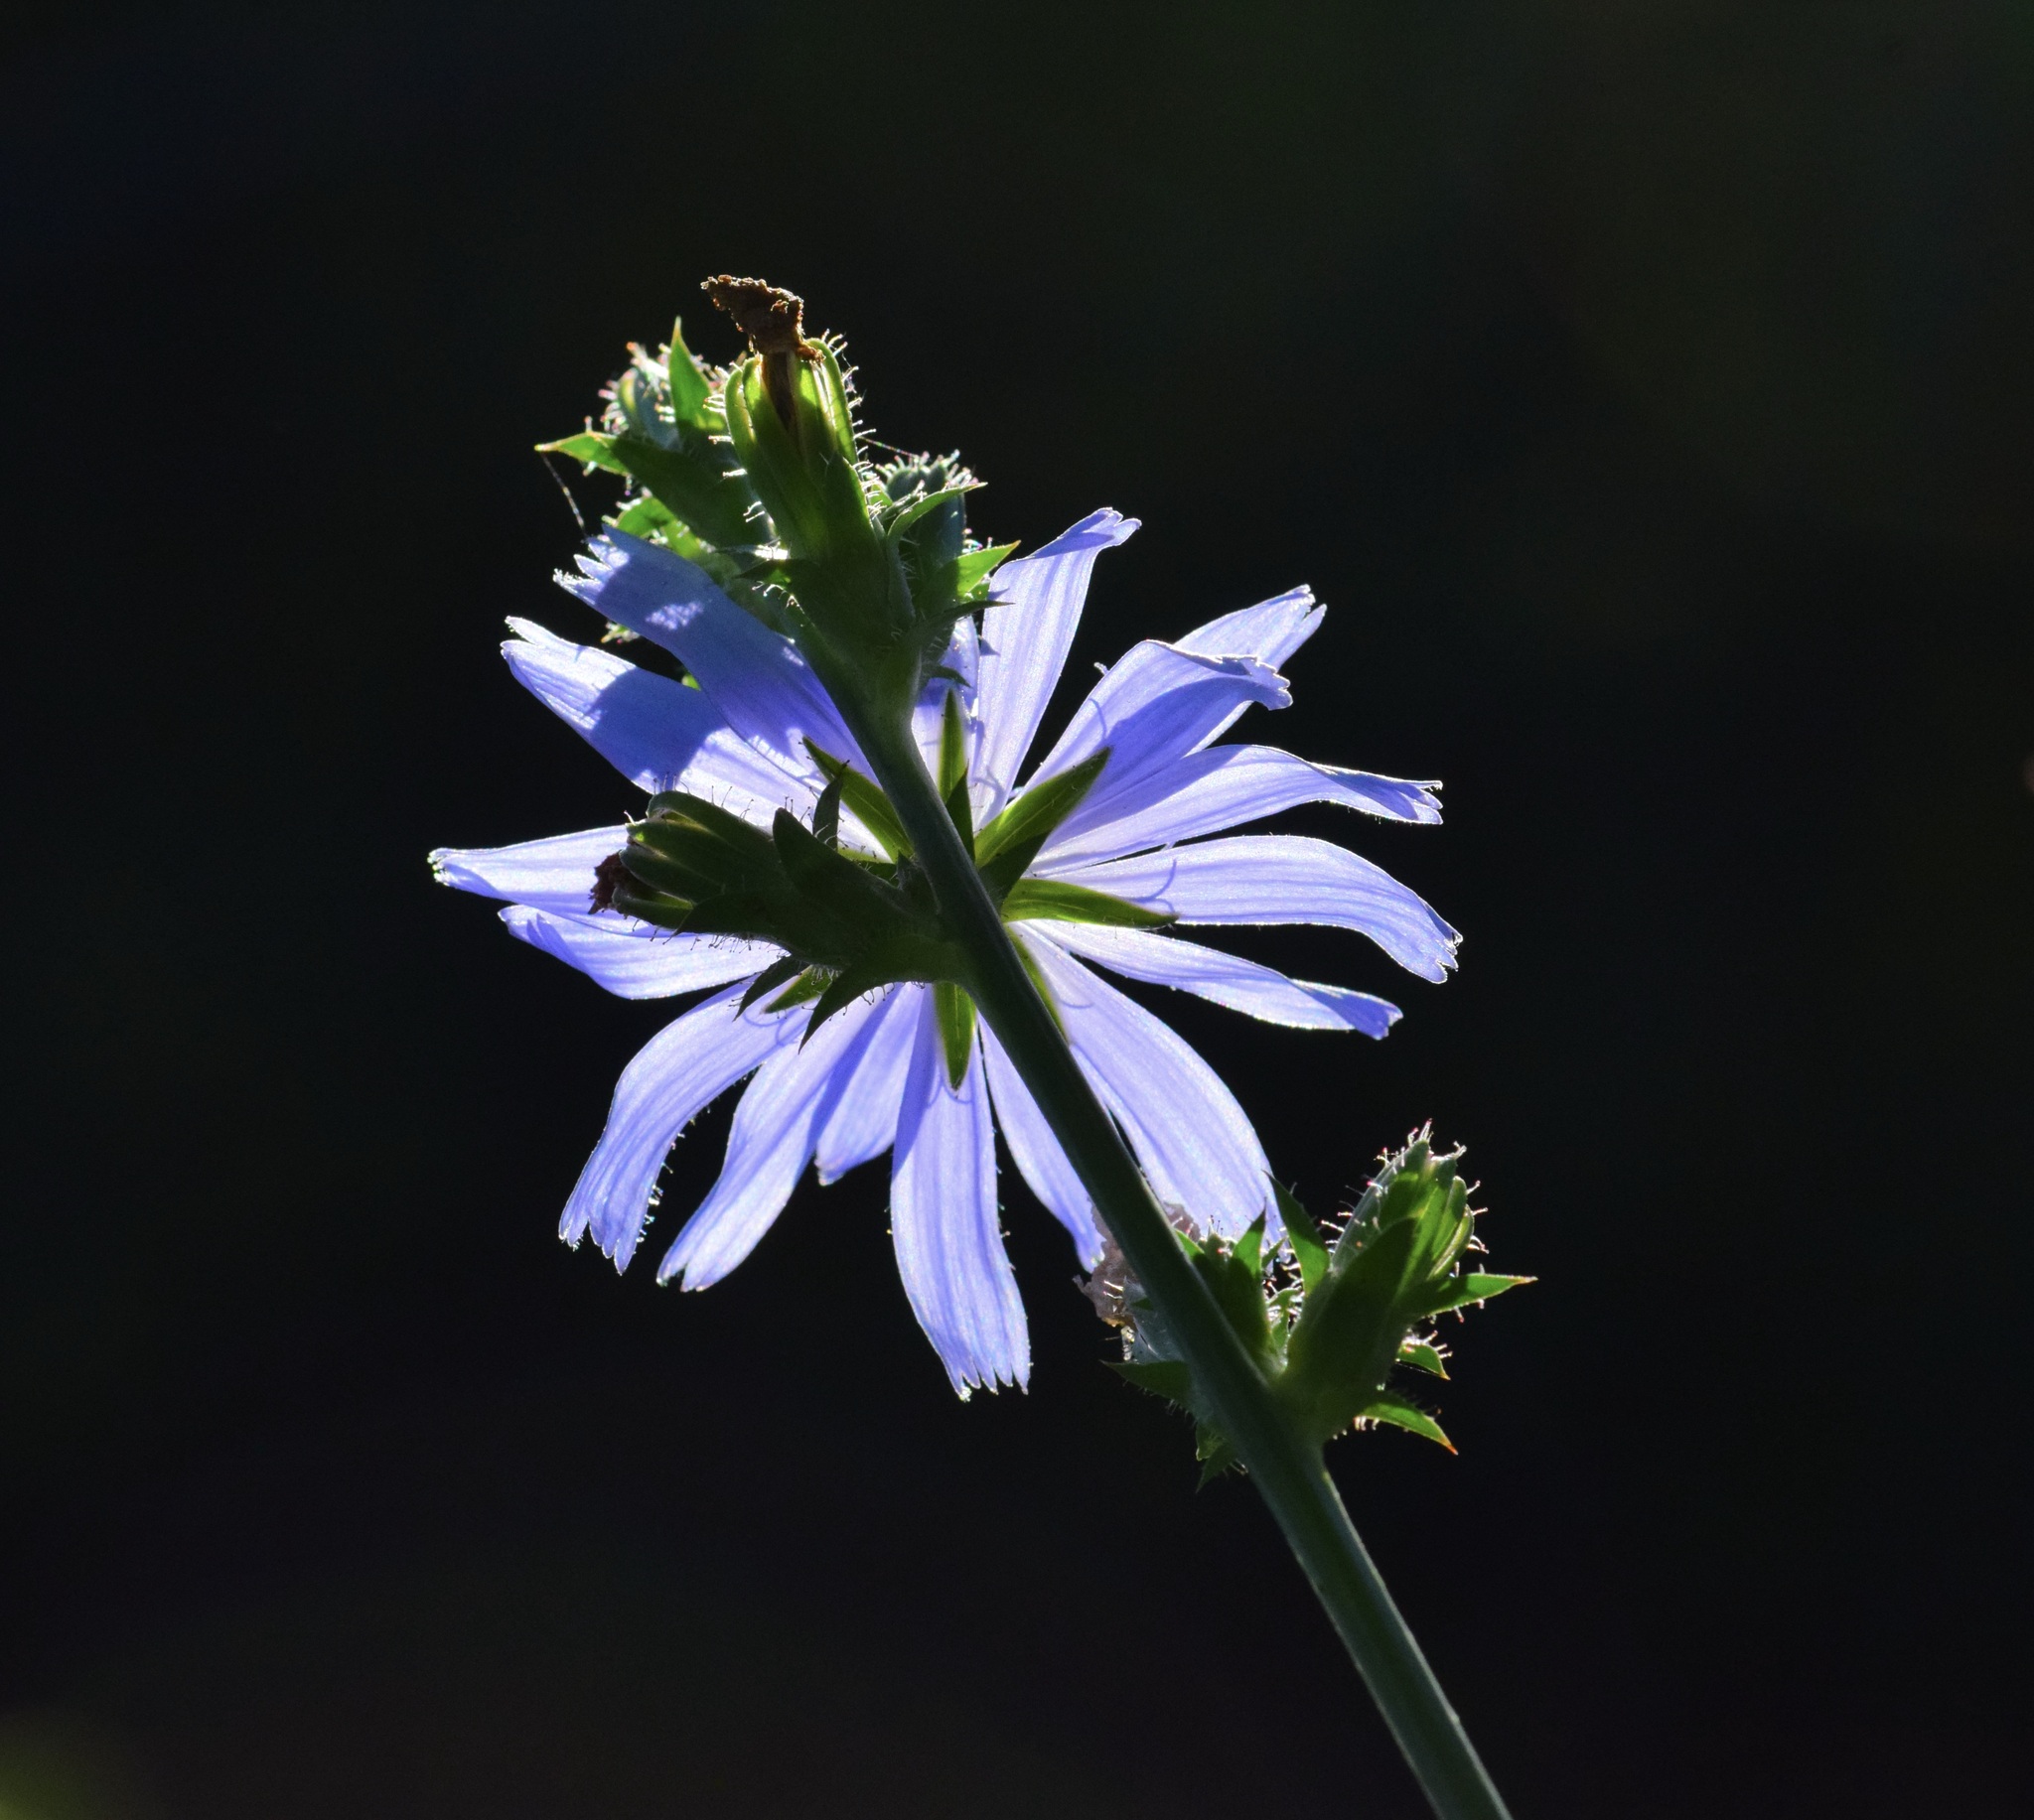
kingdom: Plantae
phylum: Tracheophyta
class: Magnoliopsida
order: Asterales
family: Asteraceae
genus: Cichorium
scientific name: Cichorium intybus
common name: Chicory
